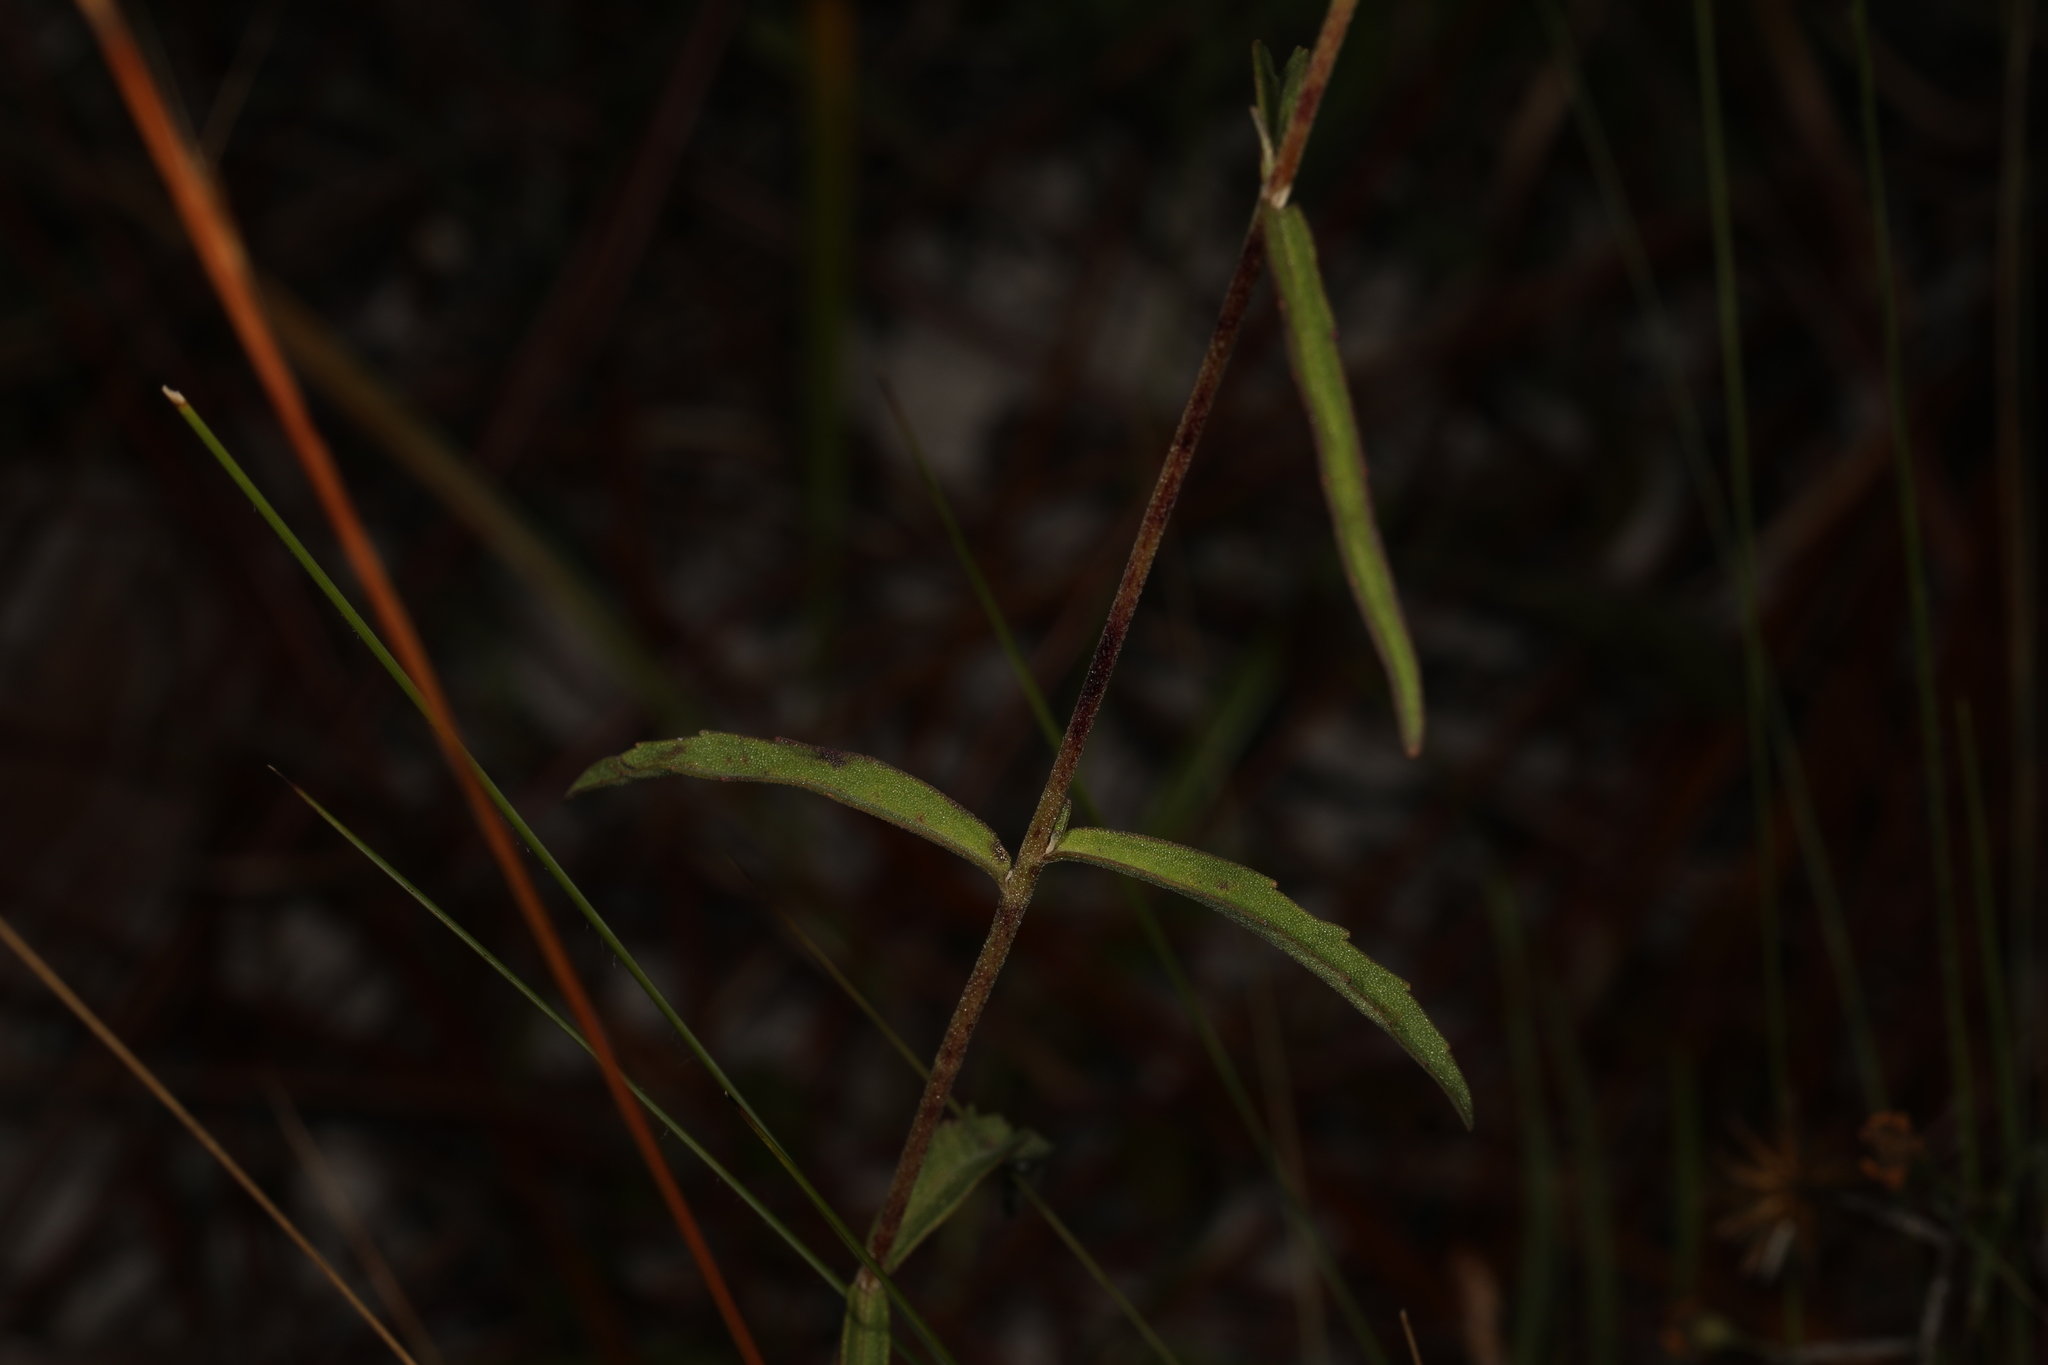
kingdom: Plantae
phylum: Tracheophyta
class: Magnoliopsida
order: Asterales
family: Asteraceae
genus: Eupatorium
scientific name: Eupatorium mohrii
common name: Mohr's thoroughwort
